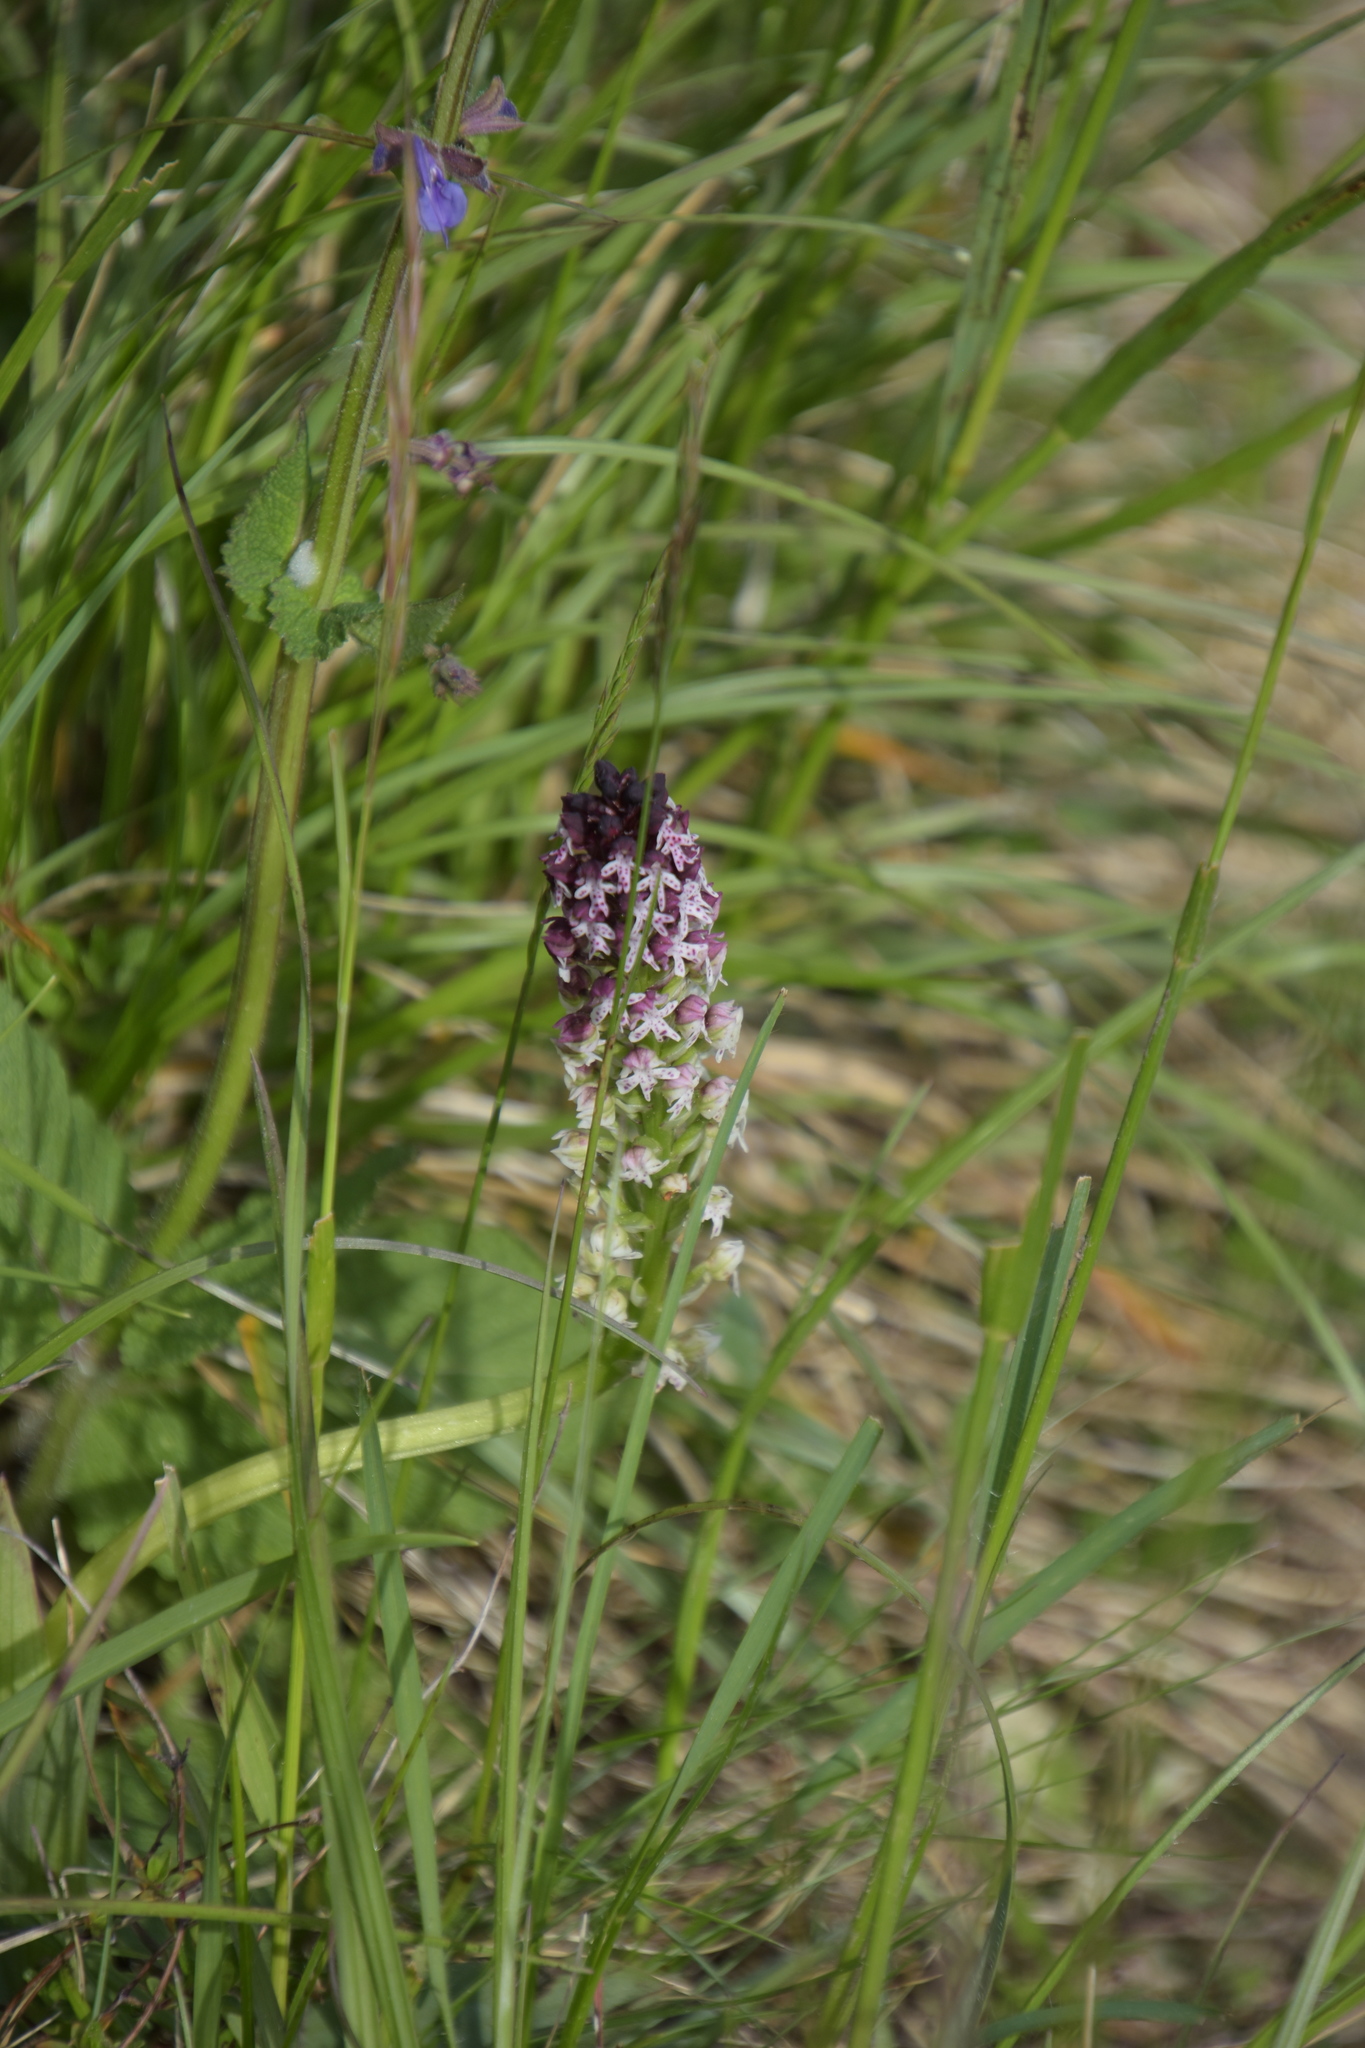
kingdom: Plantae
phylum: Tracheophyta
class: Liliopsida
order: Asparagales
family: Orchidaceae
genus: Neotinea
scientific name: Neotinea ustulata
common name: Burnt orchid
